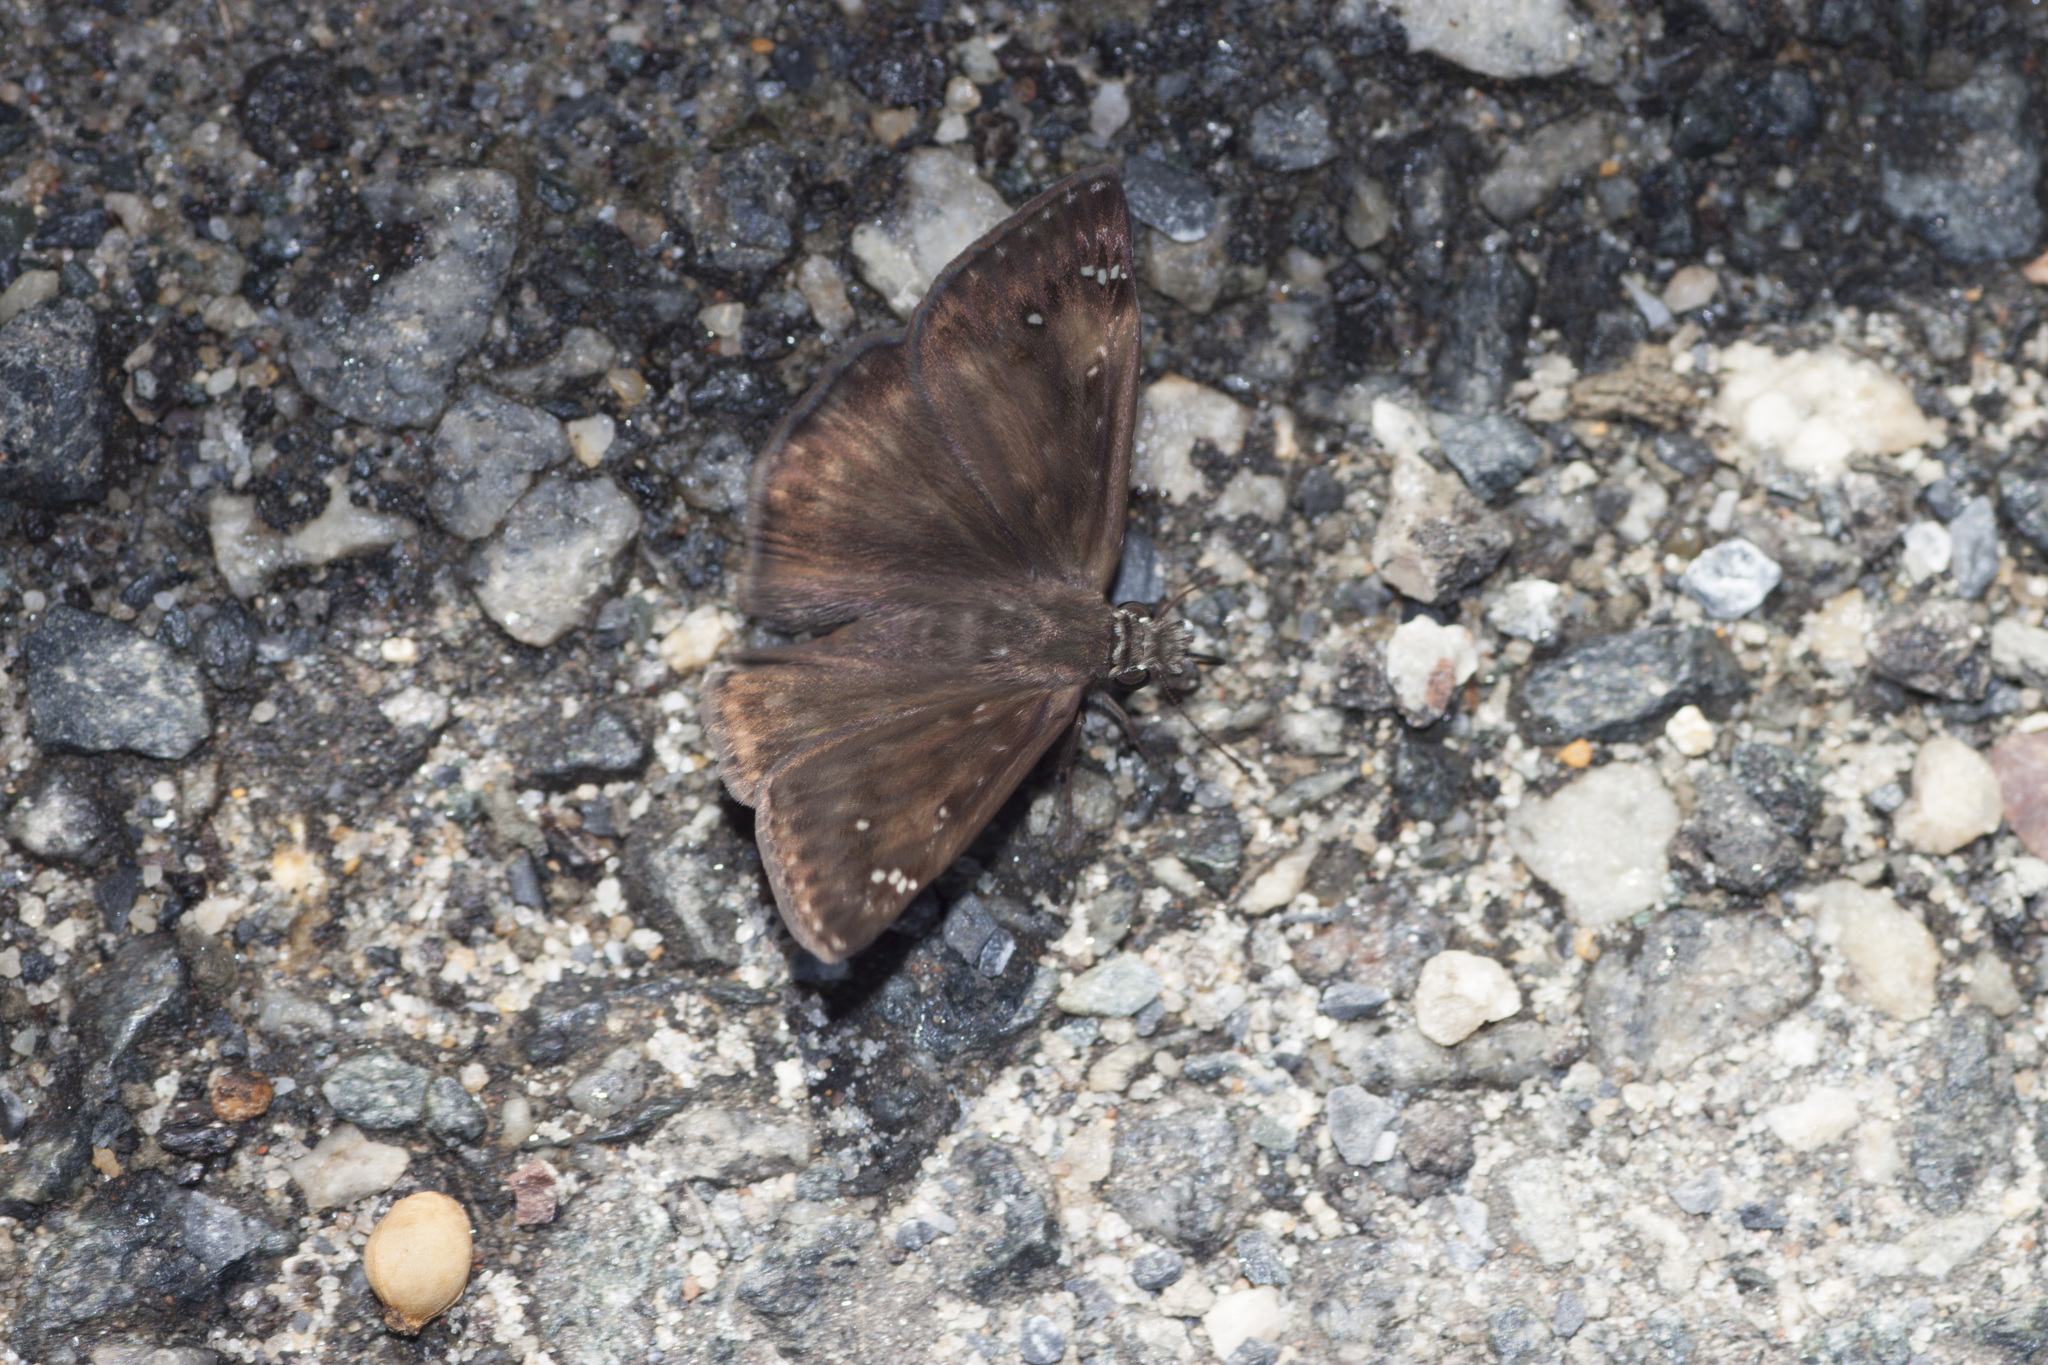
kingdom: Animalia
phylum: Arthropoda
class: Insecta
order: Lepidoptera
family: Hesperiidae
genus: Erynnis
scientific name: Erynnis horatius
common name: Horace's duskywing
